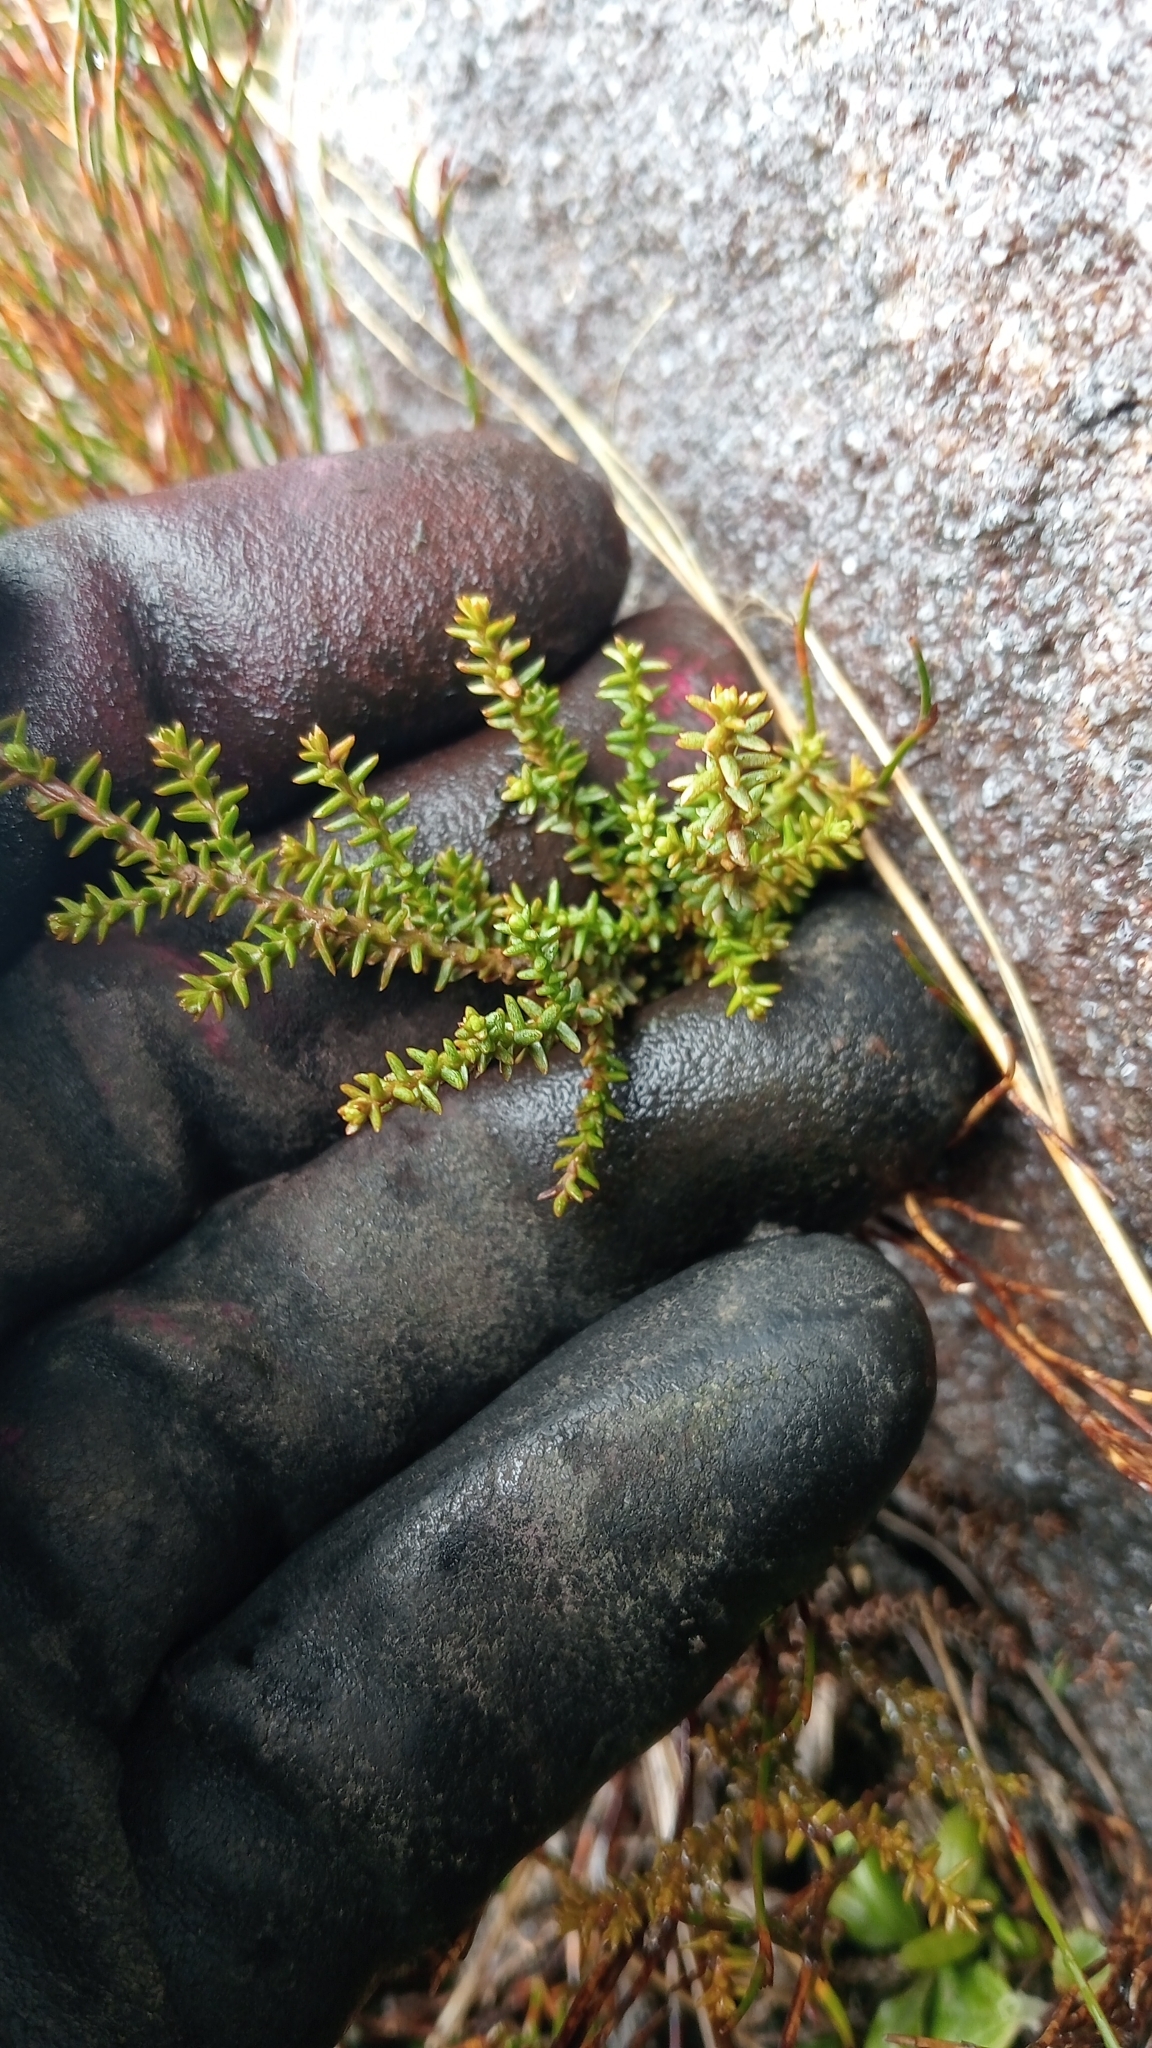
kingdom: Plantae
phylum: Tracheophyta
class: Pinopsida
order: Pinales
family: Podocarpaceae
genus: Lepidothamnus
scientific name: Lepidothamnus laxifolius
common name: Pygmy pine
